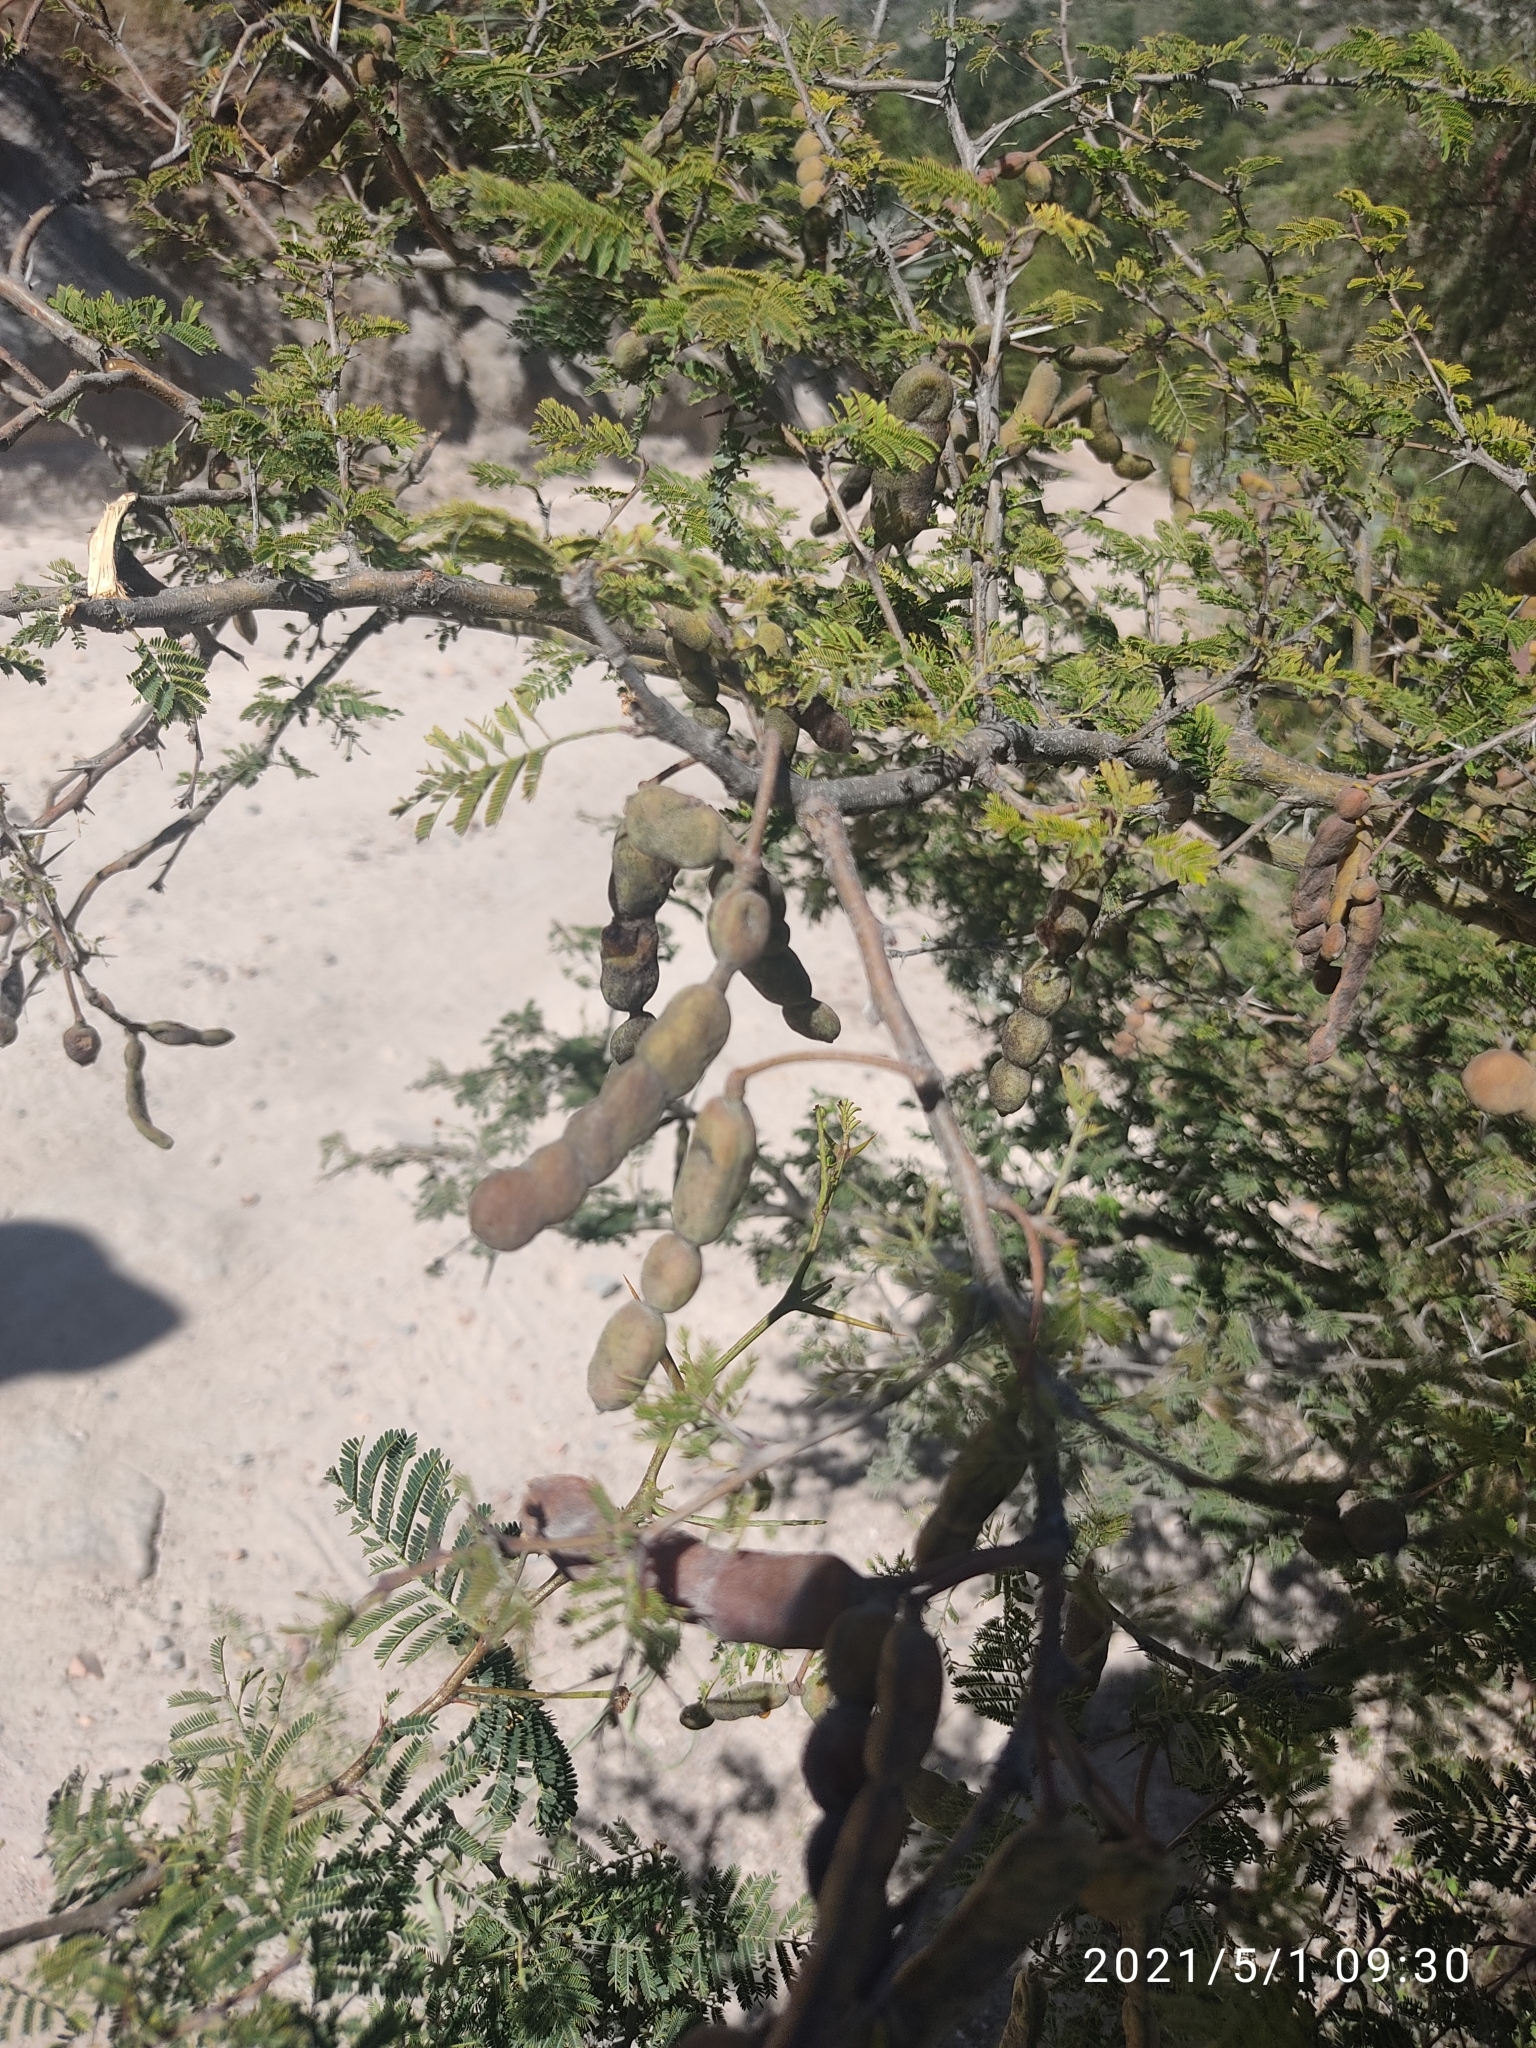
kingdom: Plantae
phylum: Tracheophyta
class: Magnoliopsida
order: Fabales
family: Fabaceae
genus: Vachellia
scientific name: Vachellia aroma
